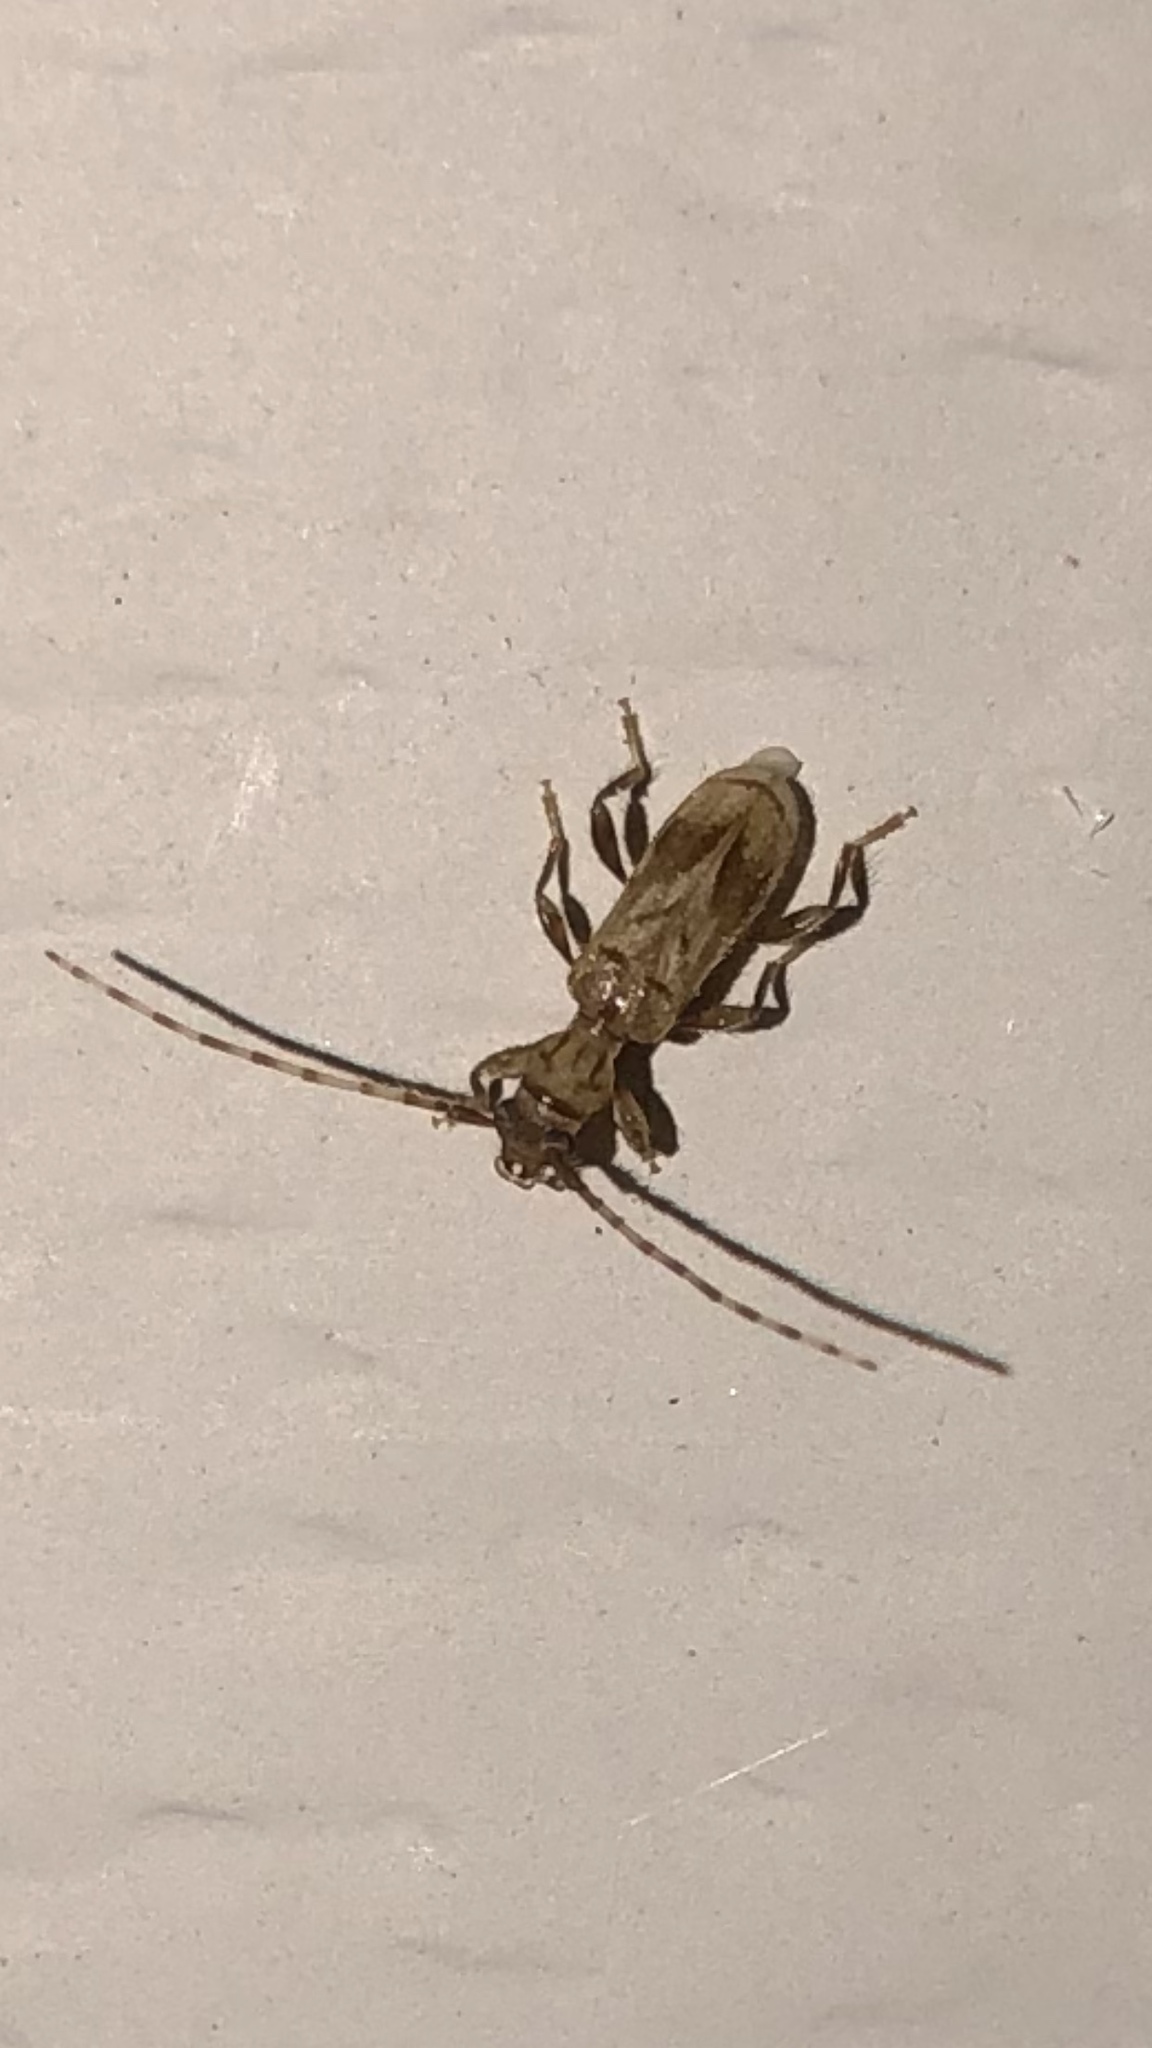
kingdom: Animalia
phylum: Arthropoda
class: Insecta
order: Coleoptera
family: Cerambycidae
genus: Obrium
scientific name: Obrium maculatum
